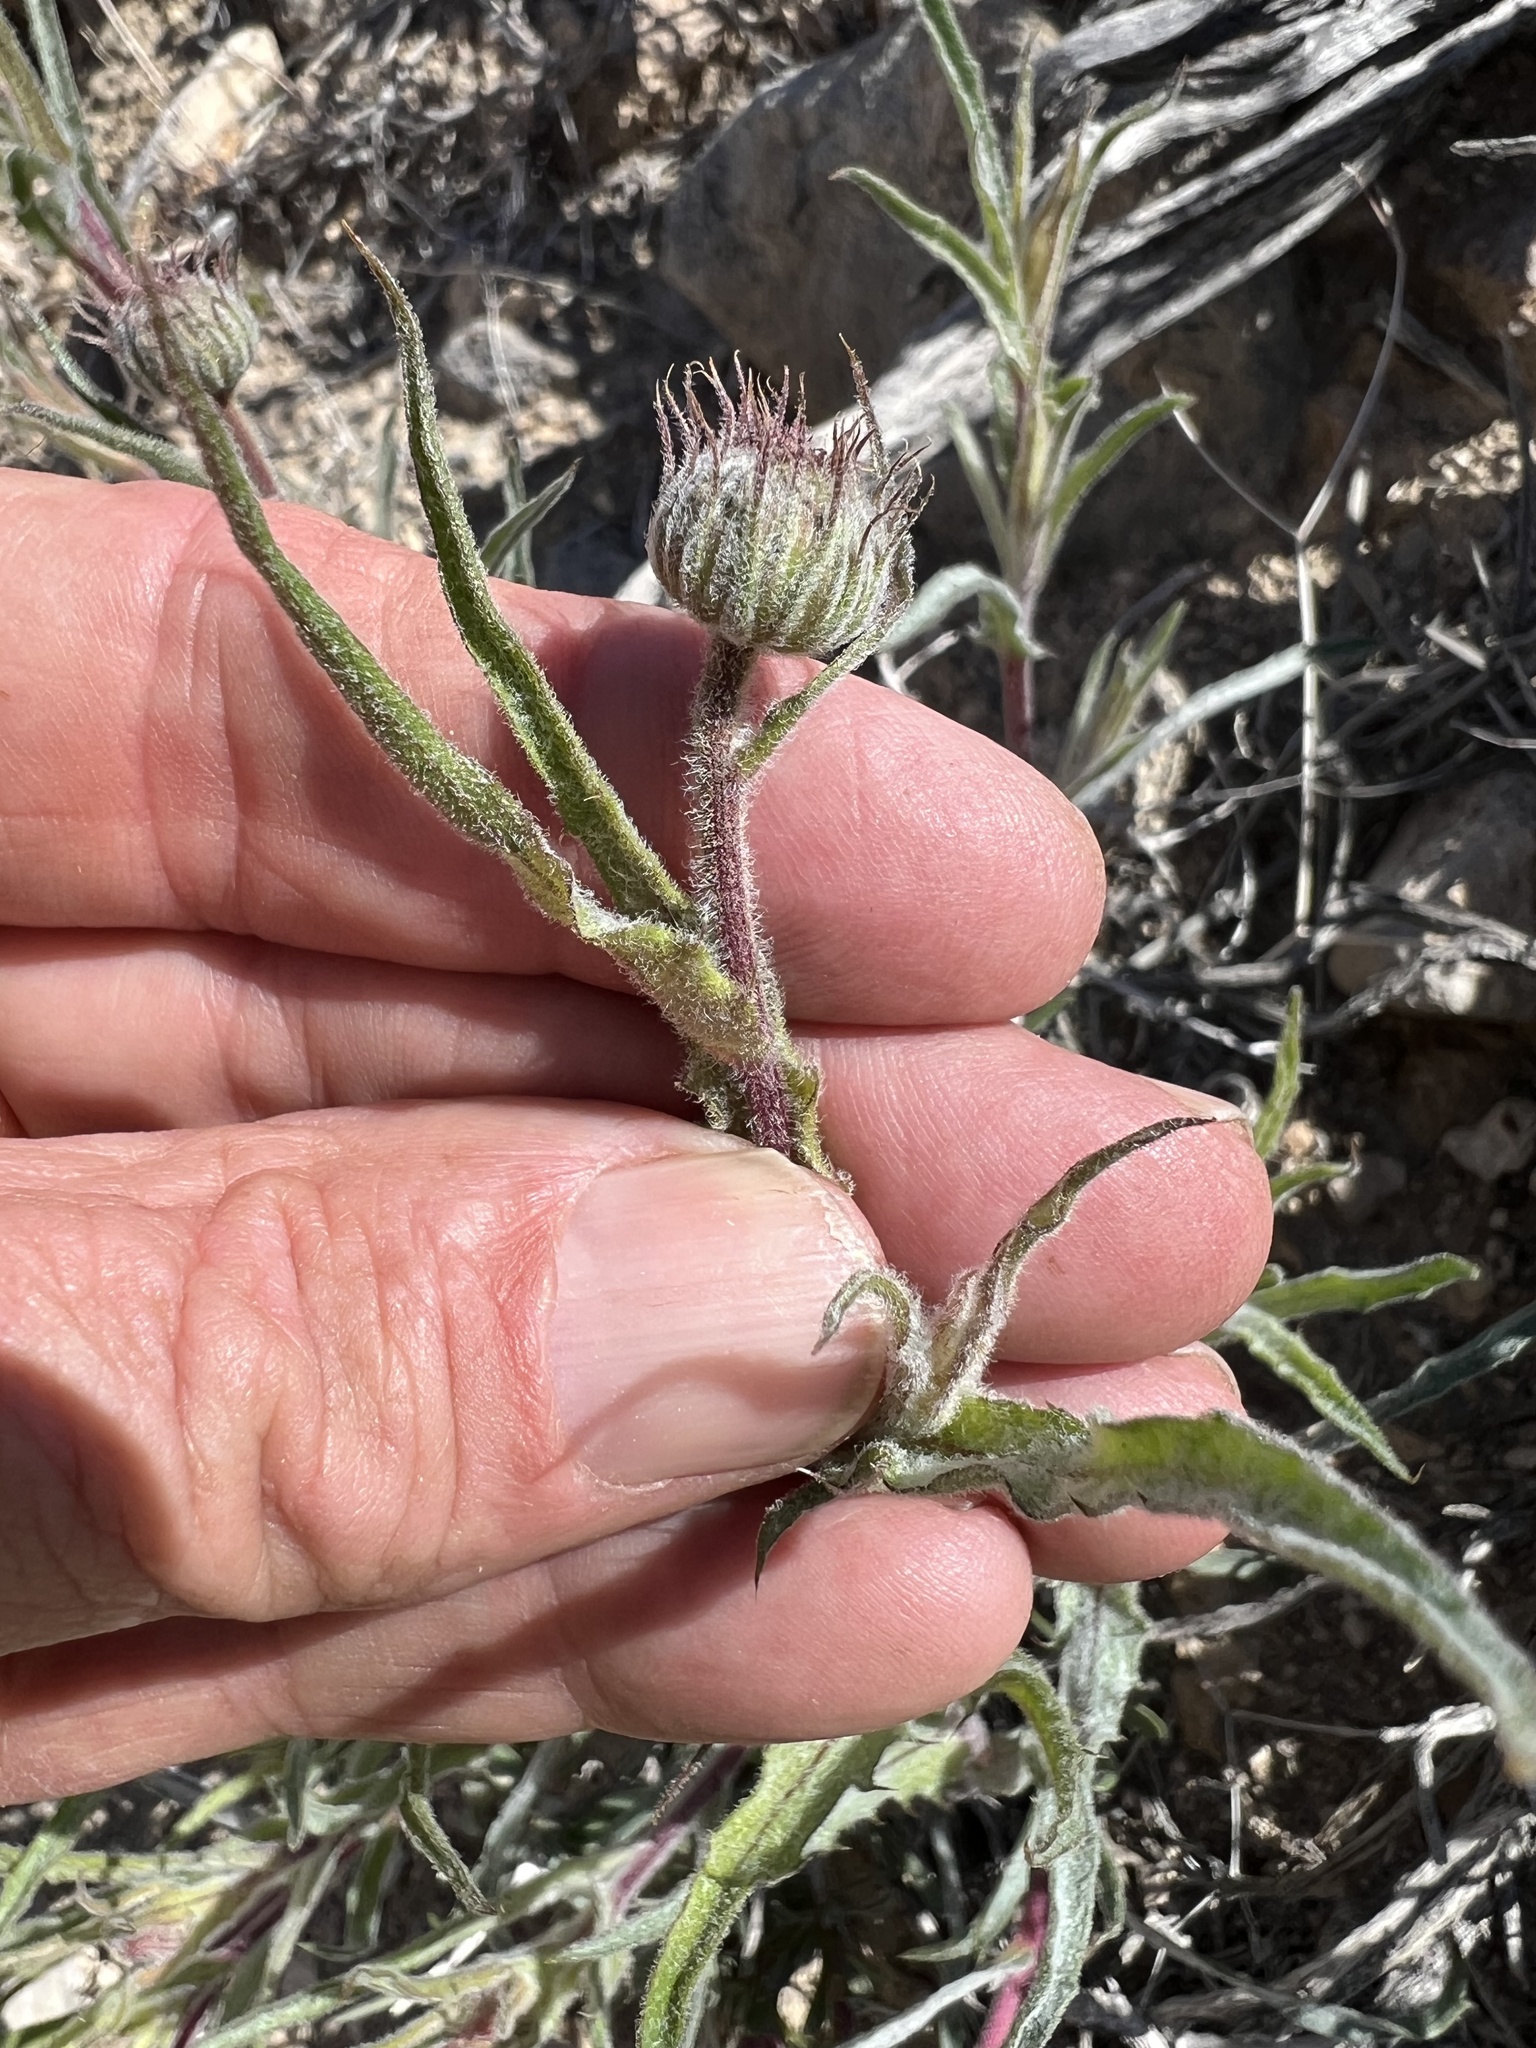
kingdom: Plantae
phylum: Tracheophyta
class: Magnoliopsida
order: Asterales
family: Asteraceae
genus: Xylorhiza
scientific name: Xylorhiza tortifolia
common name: Hurt-leaf woody-aster
